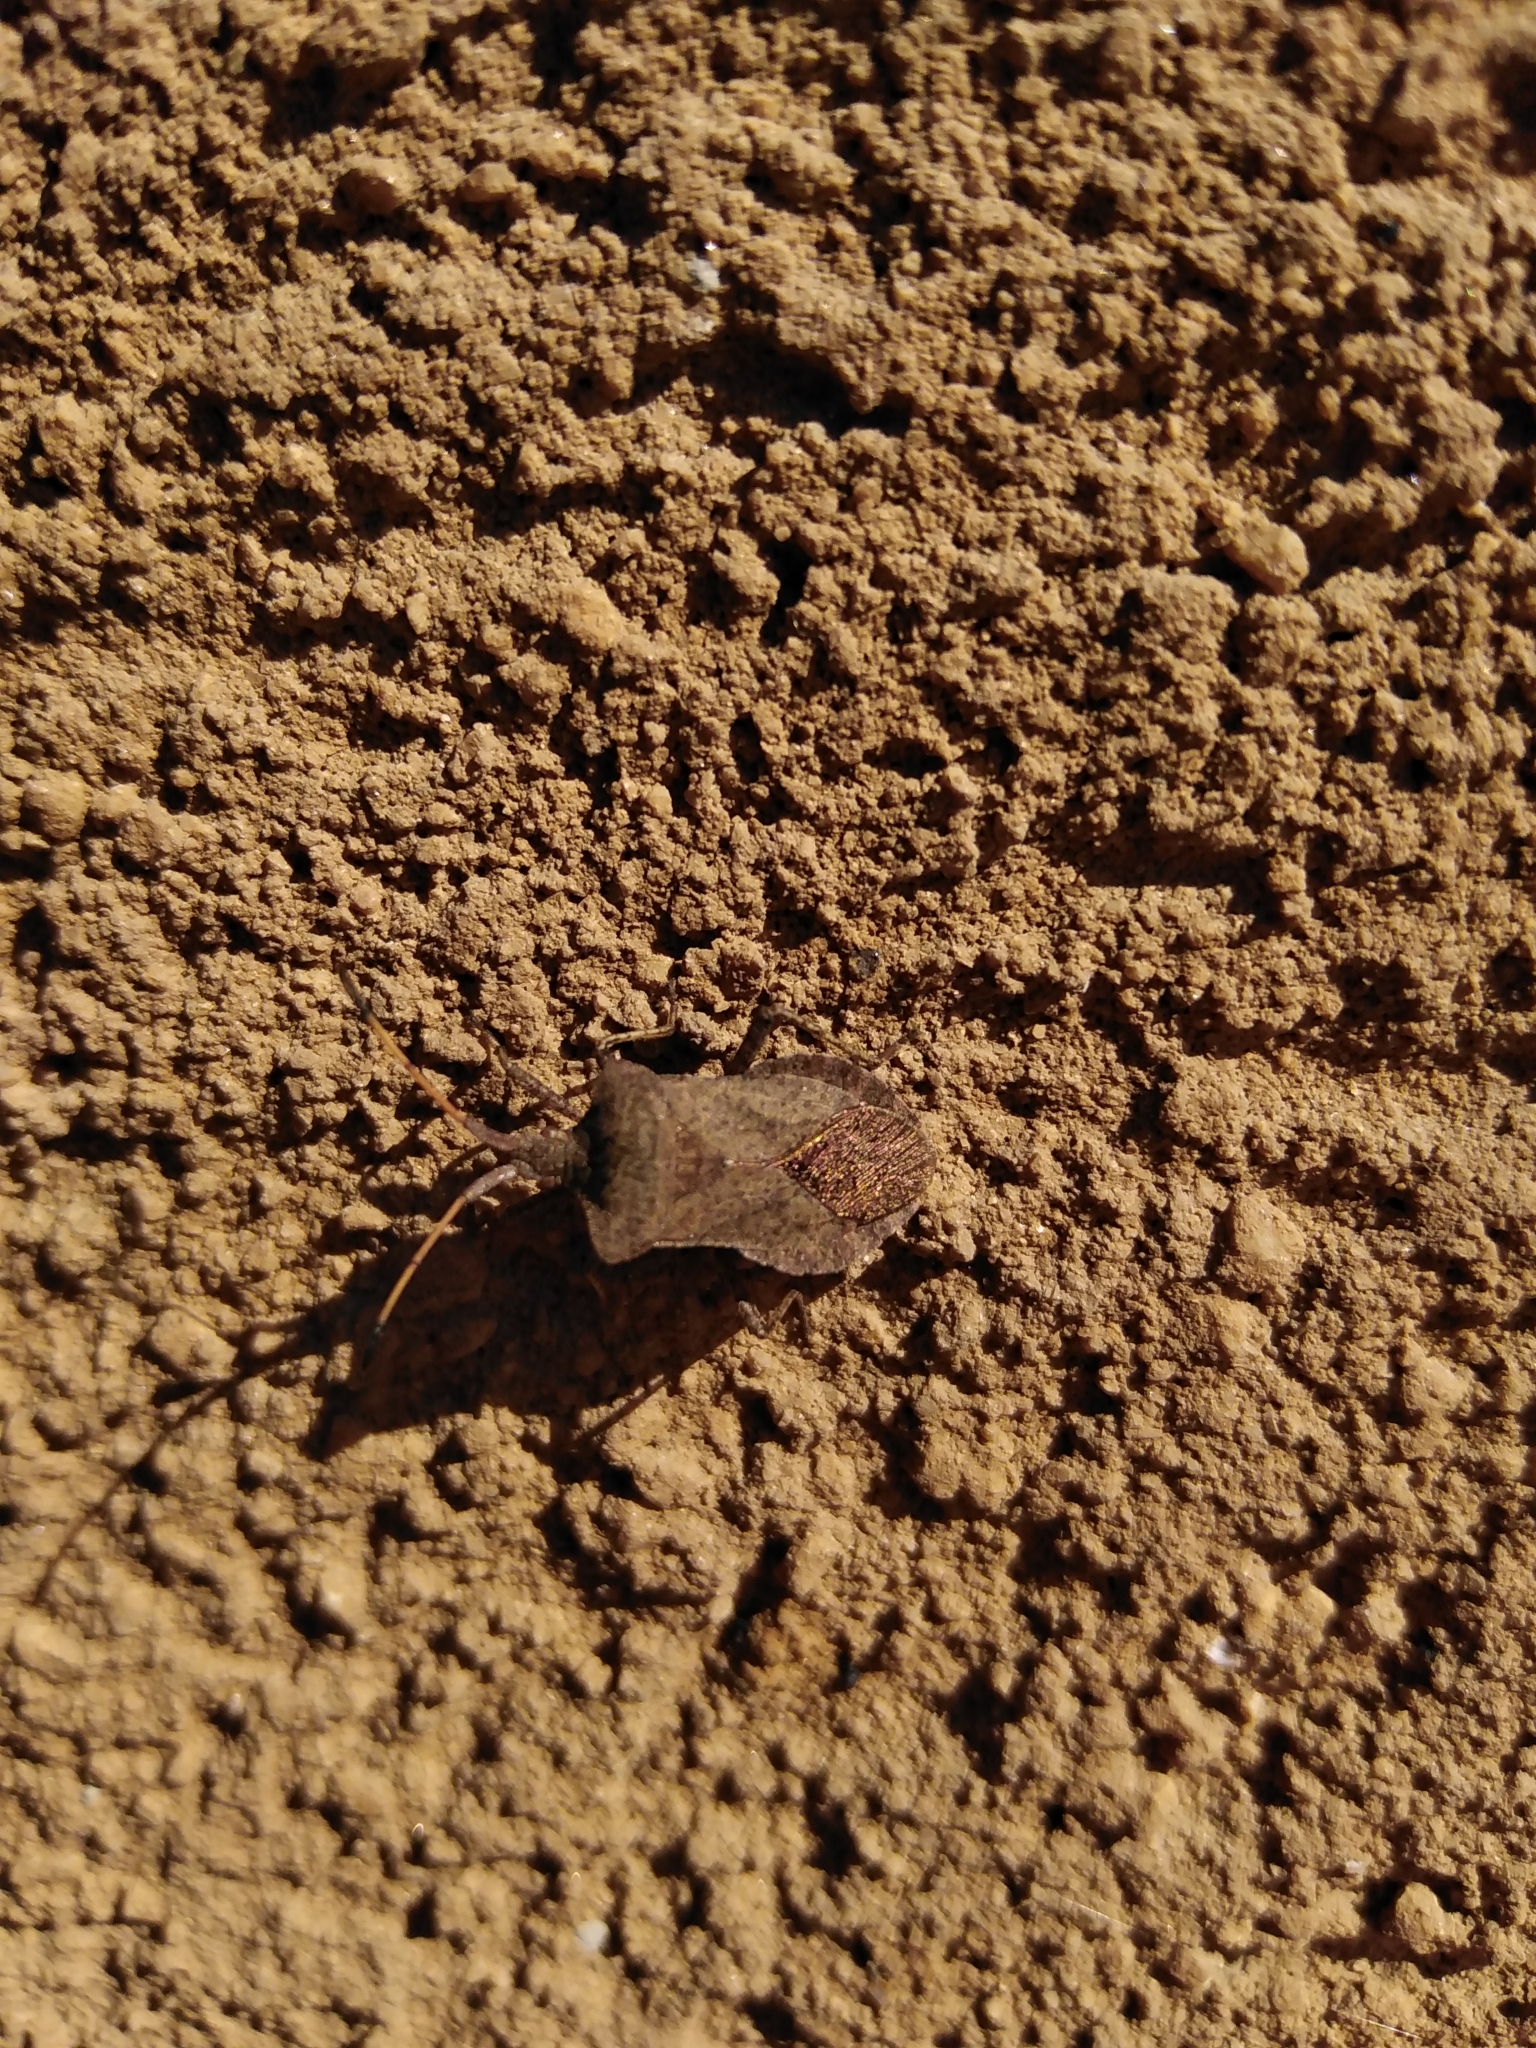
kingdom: Animalia
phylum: Arthropoda
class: Insecta
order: Hemiptera
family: Coreidae
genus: Coreus
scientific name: Coreus marginatus
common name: Dock bug
